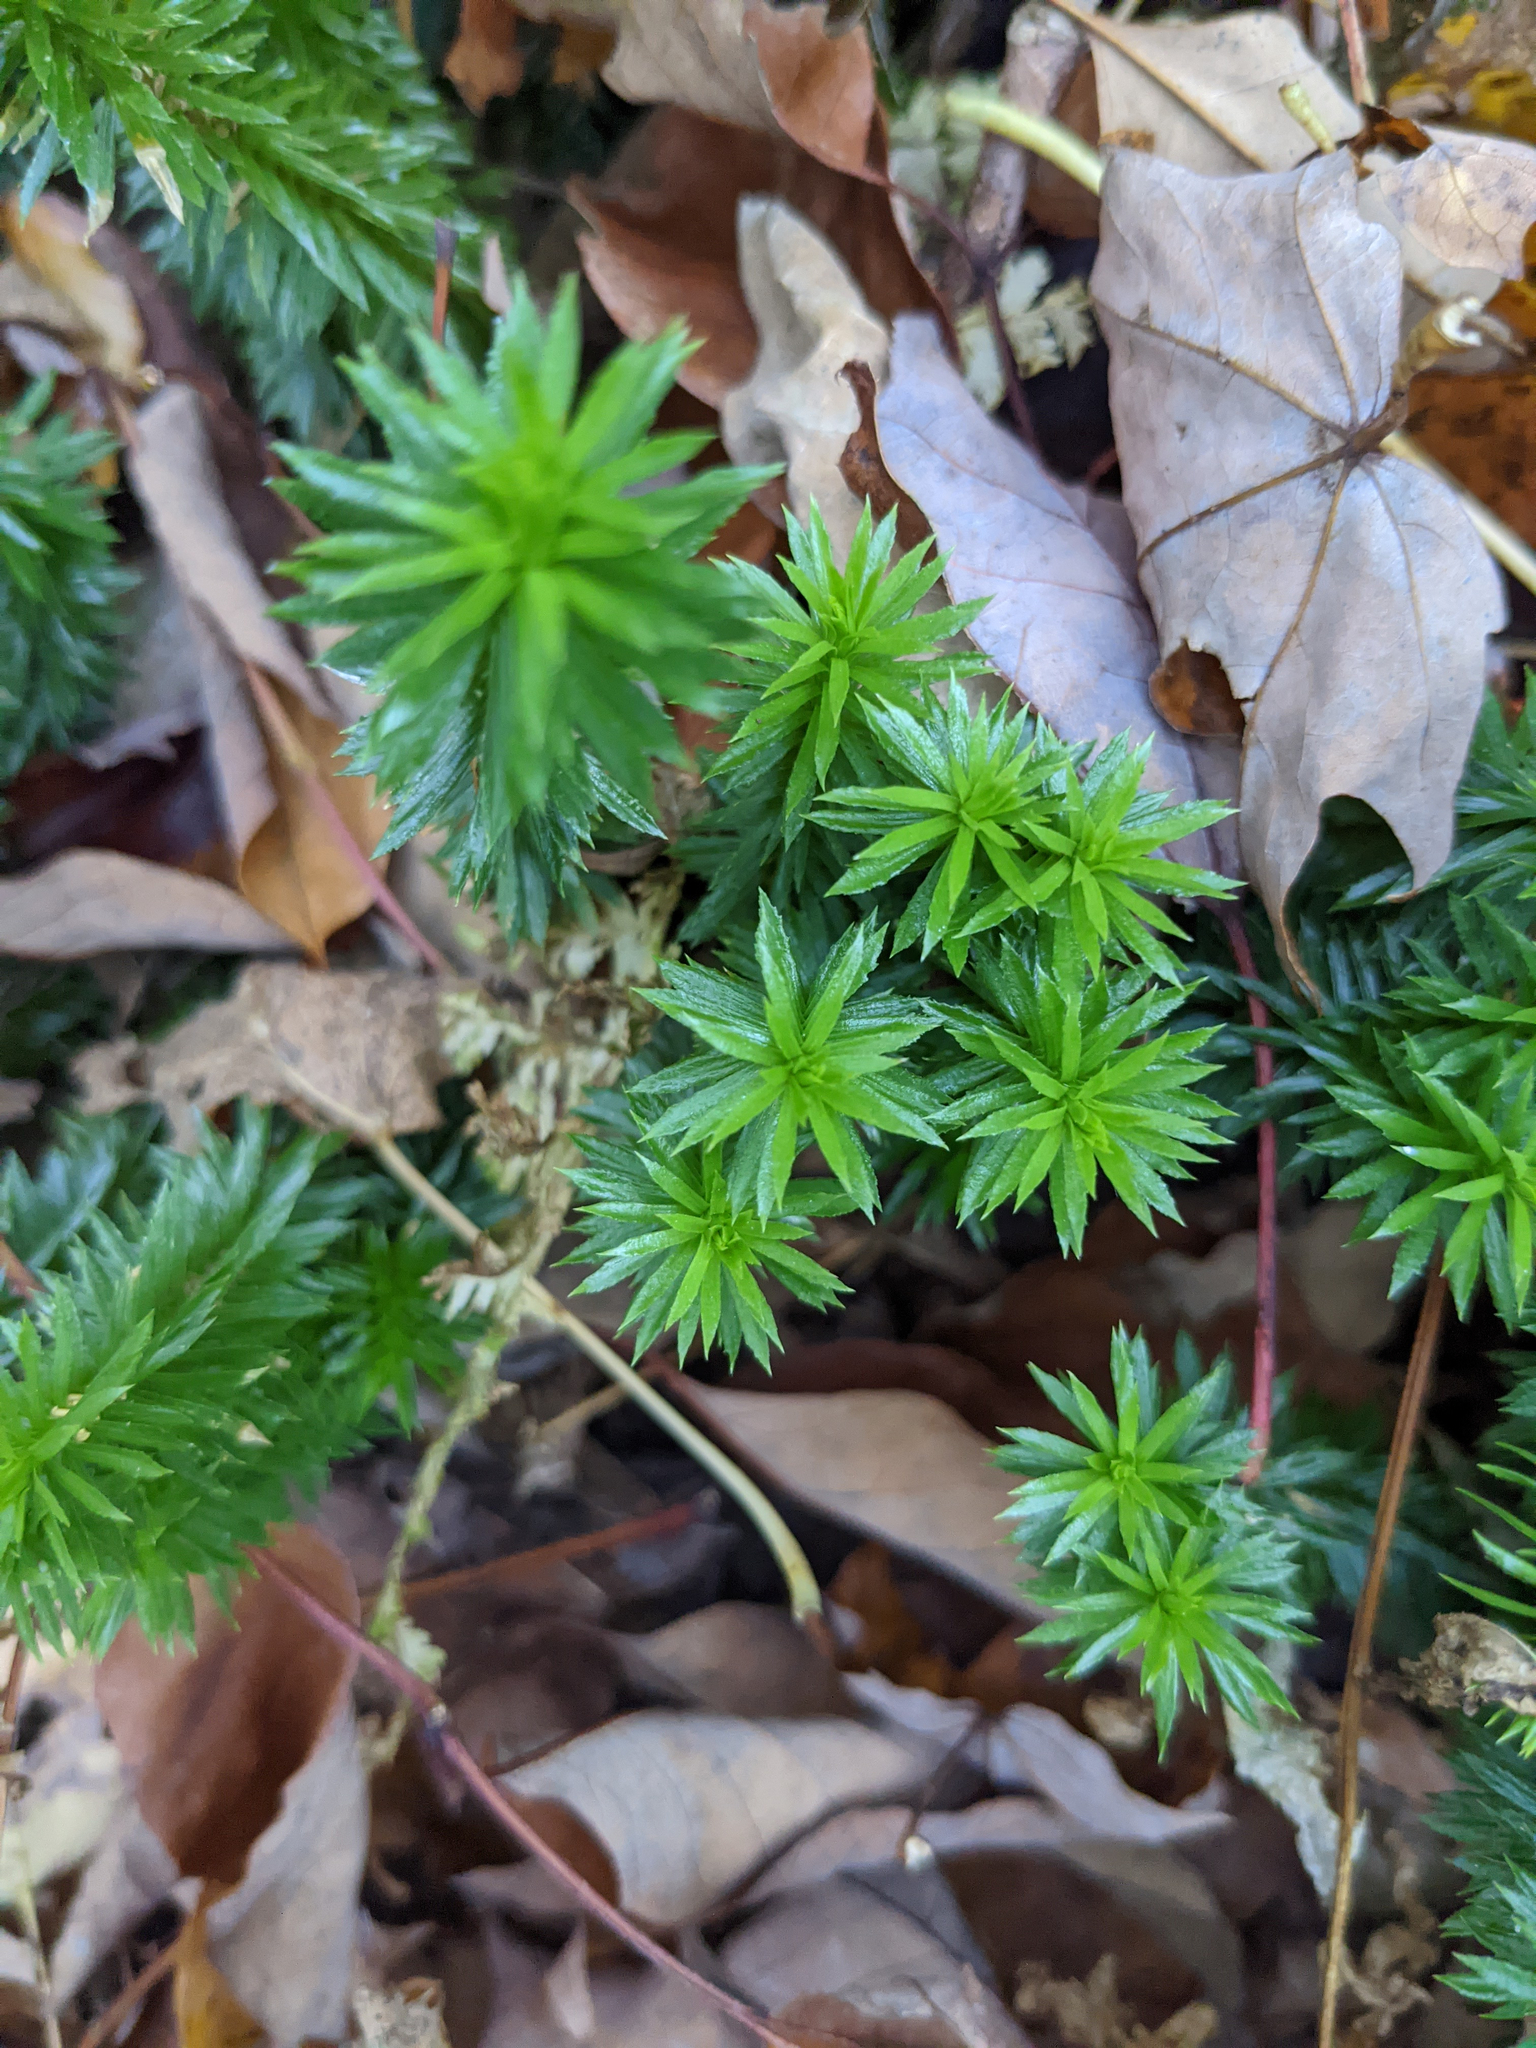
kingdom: Plantae
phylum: Tracheophyta
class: Lycopodiopsida
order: Lycopodiales
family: Lycopodiaceae
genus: Huperzia
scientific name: Huperzia lucidula
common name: Shining clubmoss
